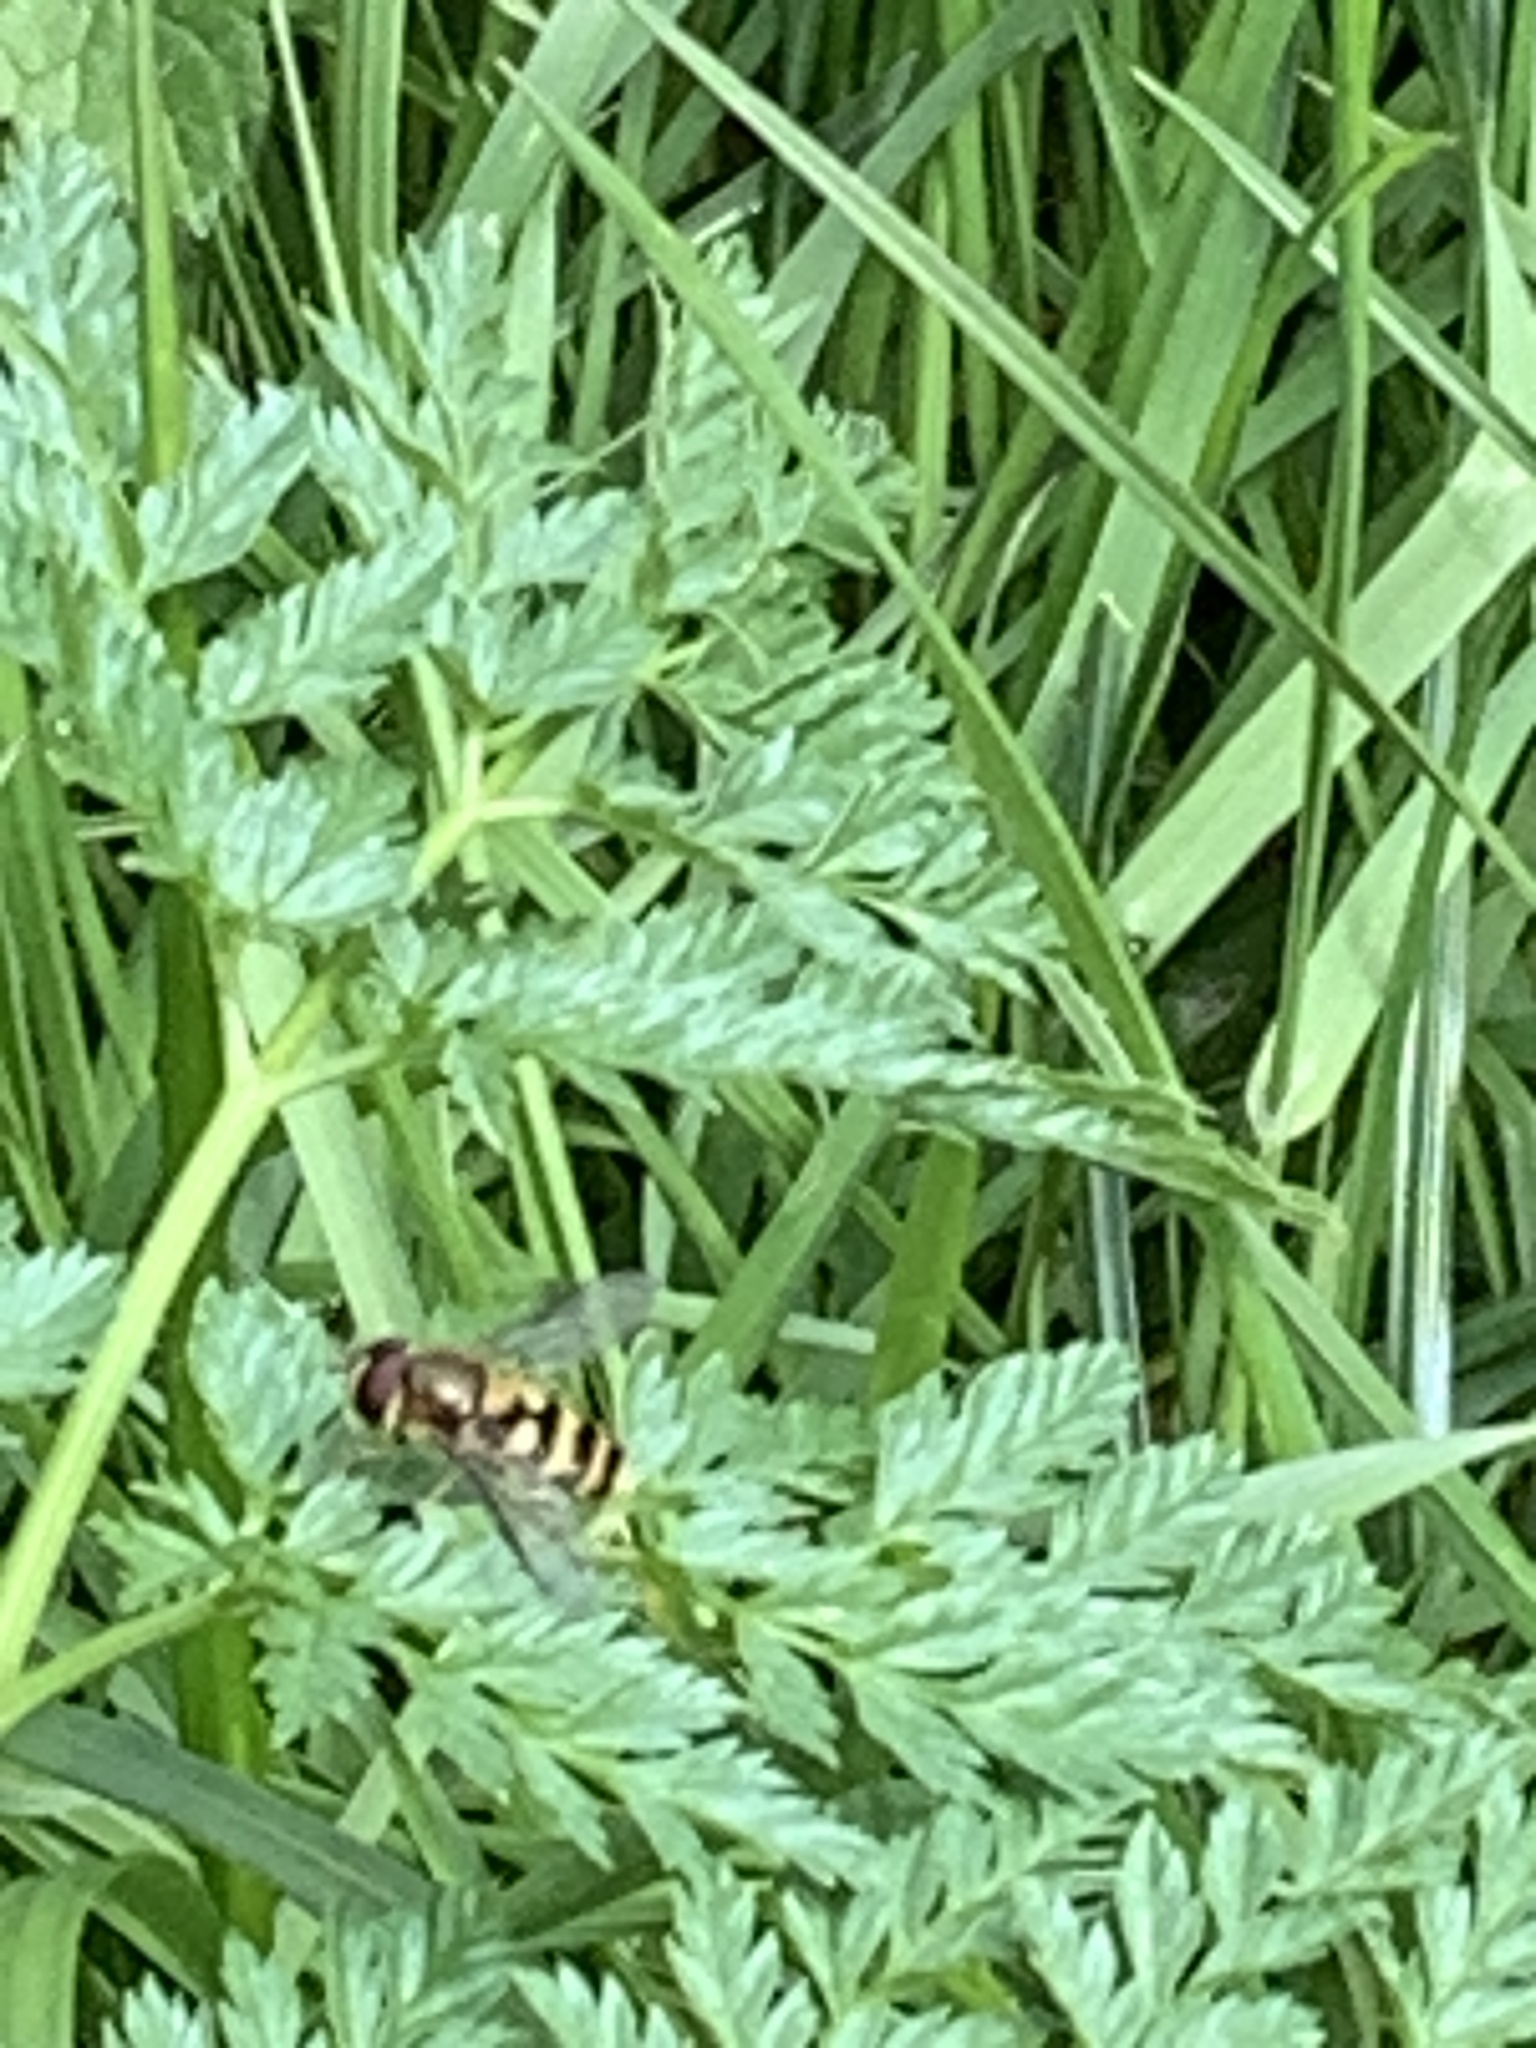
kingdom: Animalia
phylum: Arthropoda
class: Insecta
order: Diptera
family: Syrphidae
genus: Syrphus
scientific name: Syrphus ribesii
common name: Common flower fly
